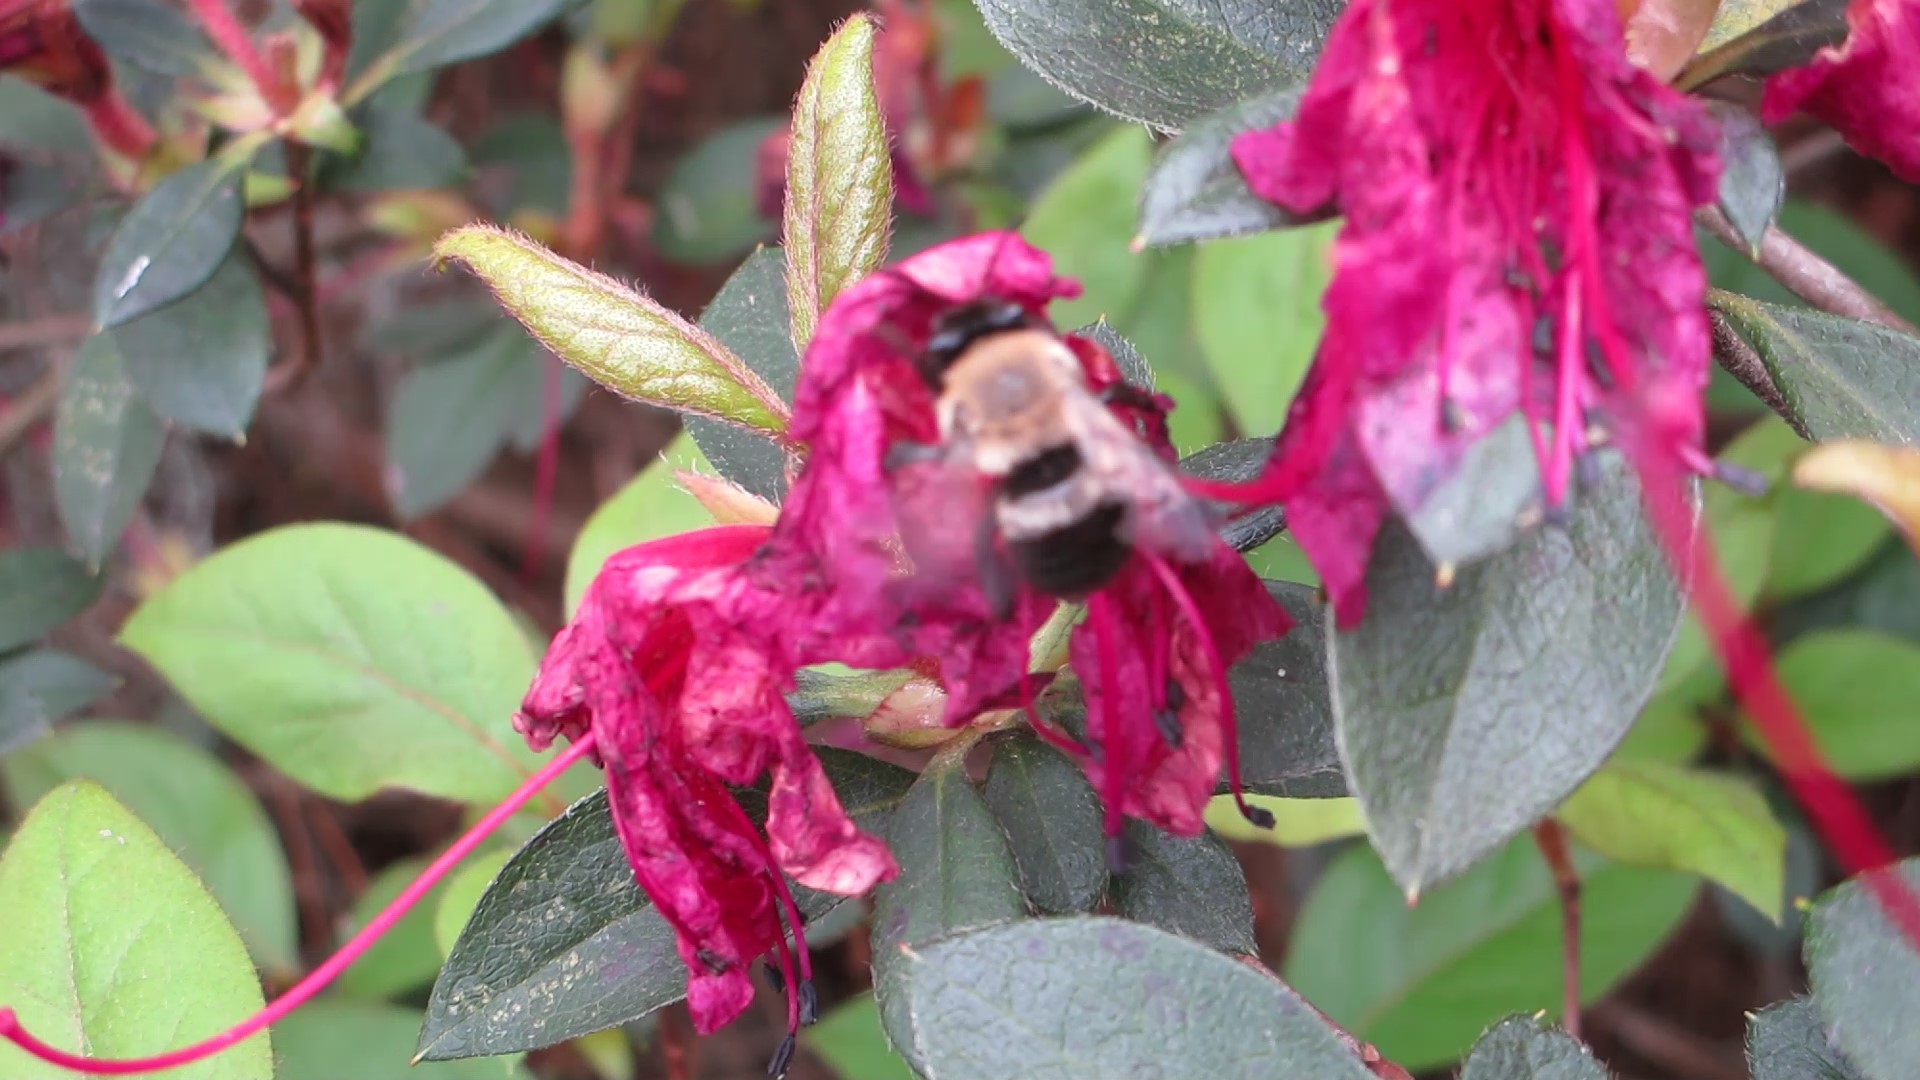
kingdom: Animalia
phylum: Arthropoda
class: Insecta
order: Hymenoptera
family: Apidae
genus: Habropoda
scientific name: Habropoda laboriosa
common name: Southeastern blueberry bee
